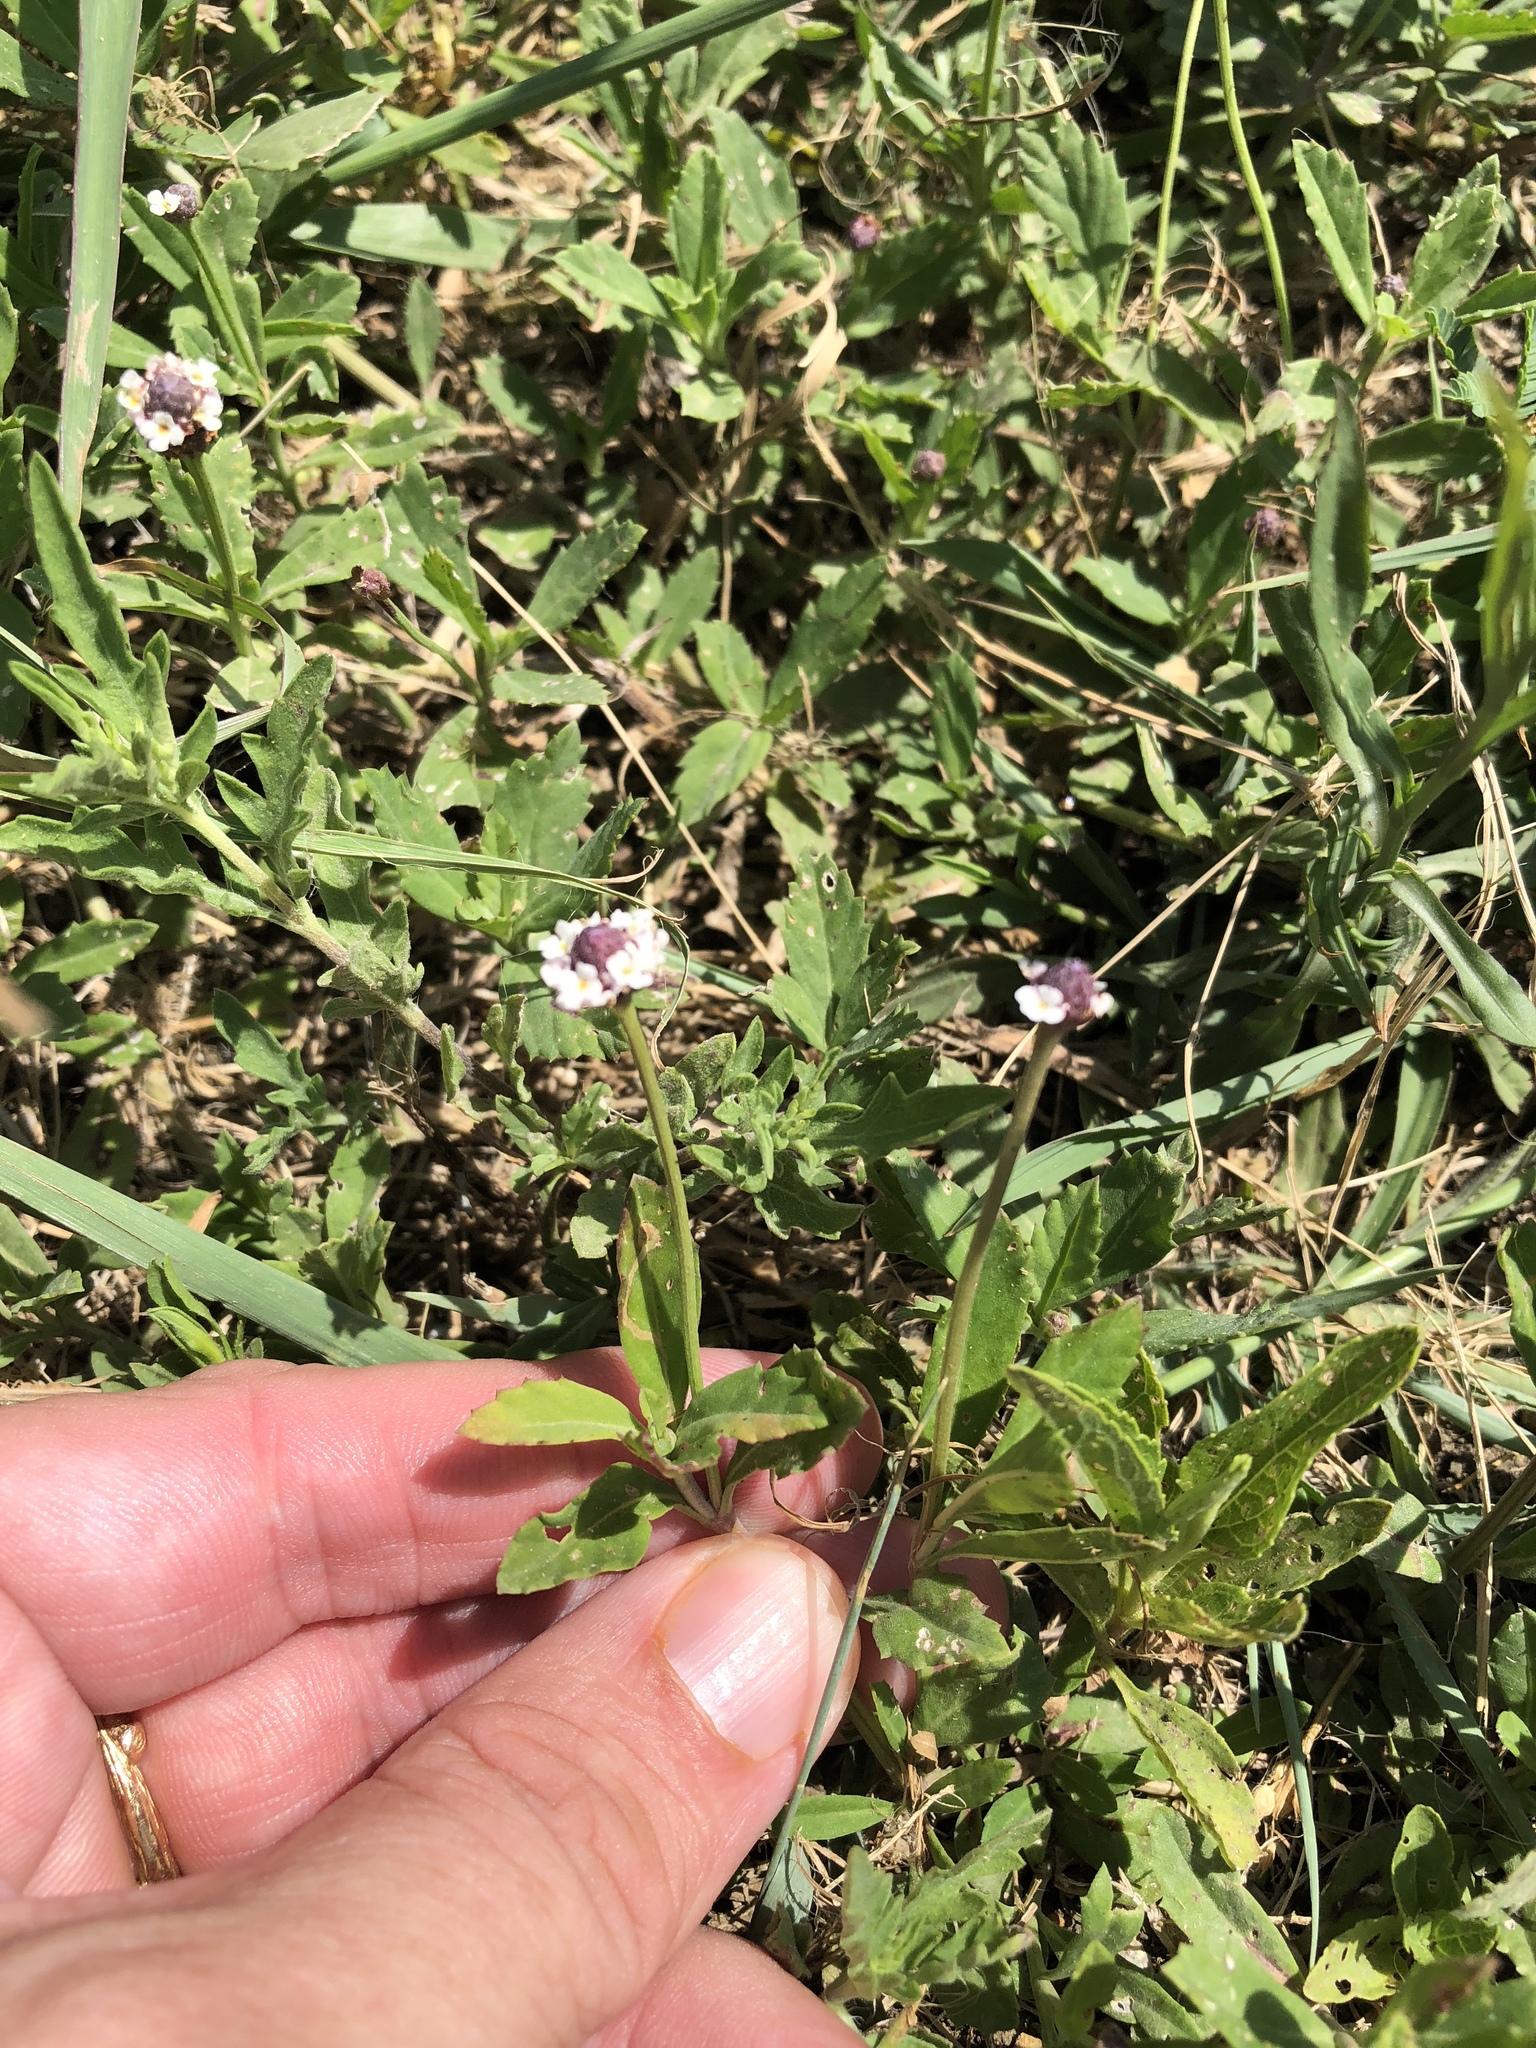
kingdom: Plantae
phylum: Tracheophyta
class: Magnoliopsida
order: Lamiales
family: Verbenaceae
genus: Phyla
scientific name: Phyla nodiflora
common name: Frogfruit
